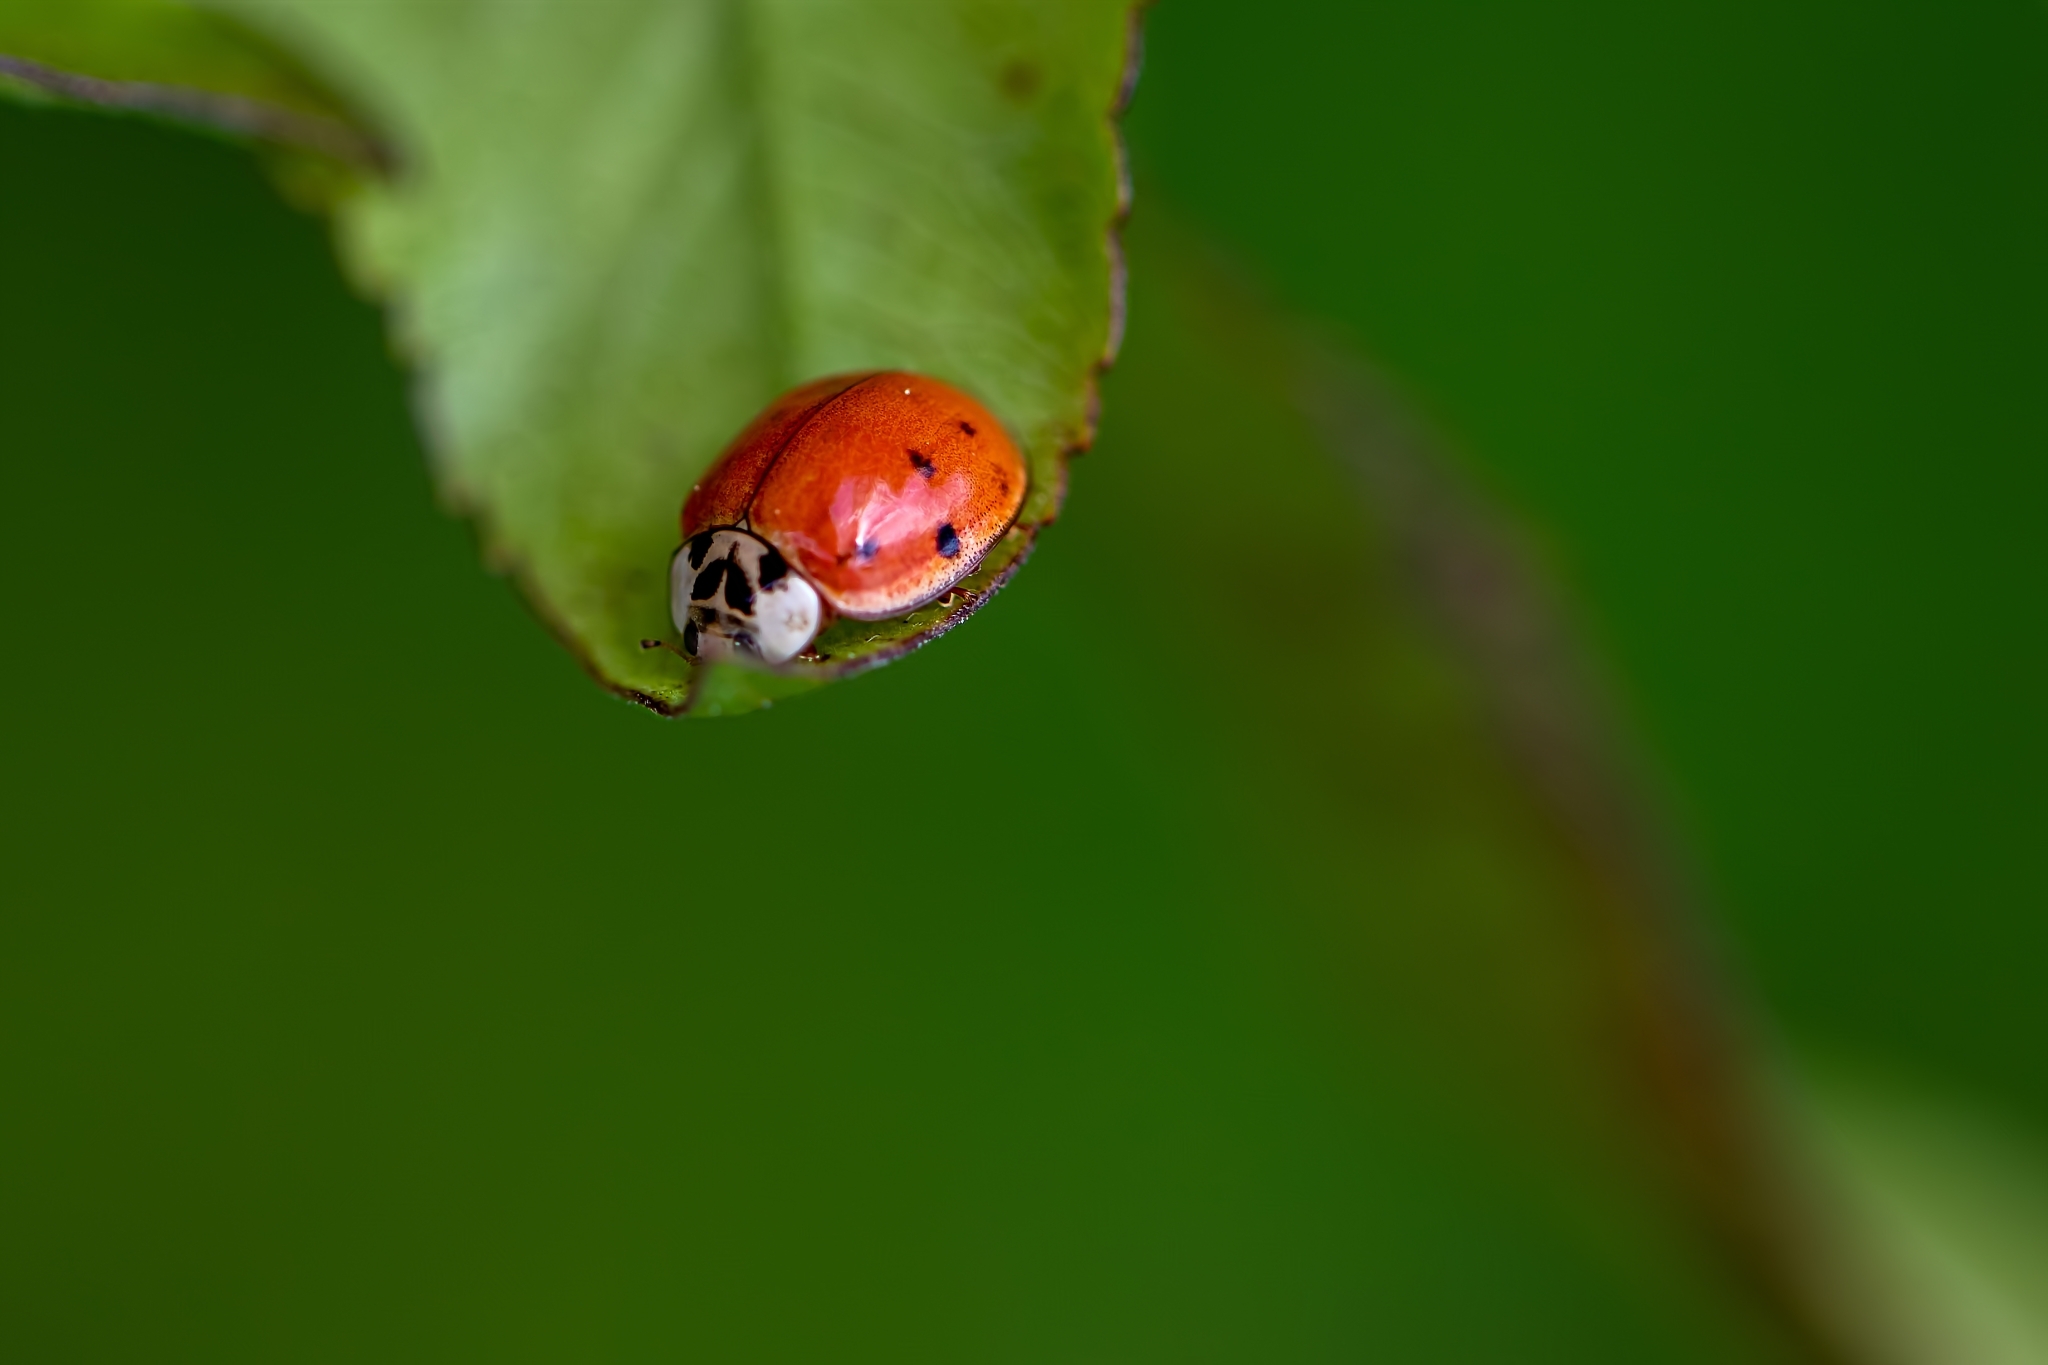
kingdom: Animalia
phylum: Arthropoda
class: Insecta
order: Coleoptera
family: Coccinellidae
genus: Harmonia
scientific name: Harmonia axyridis
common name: Harlequin ladybird
